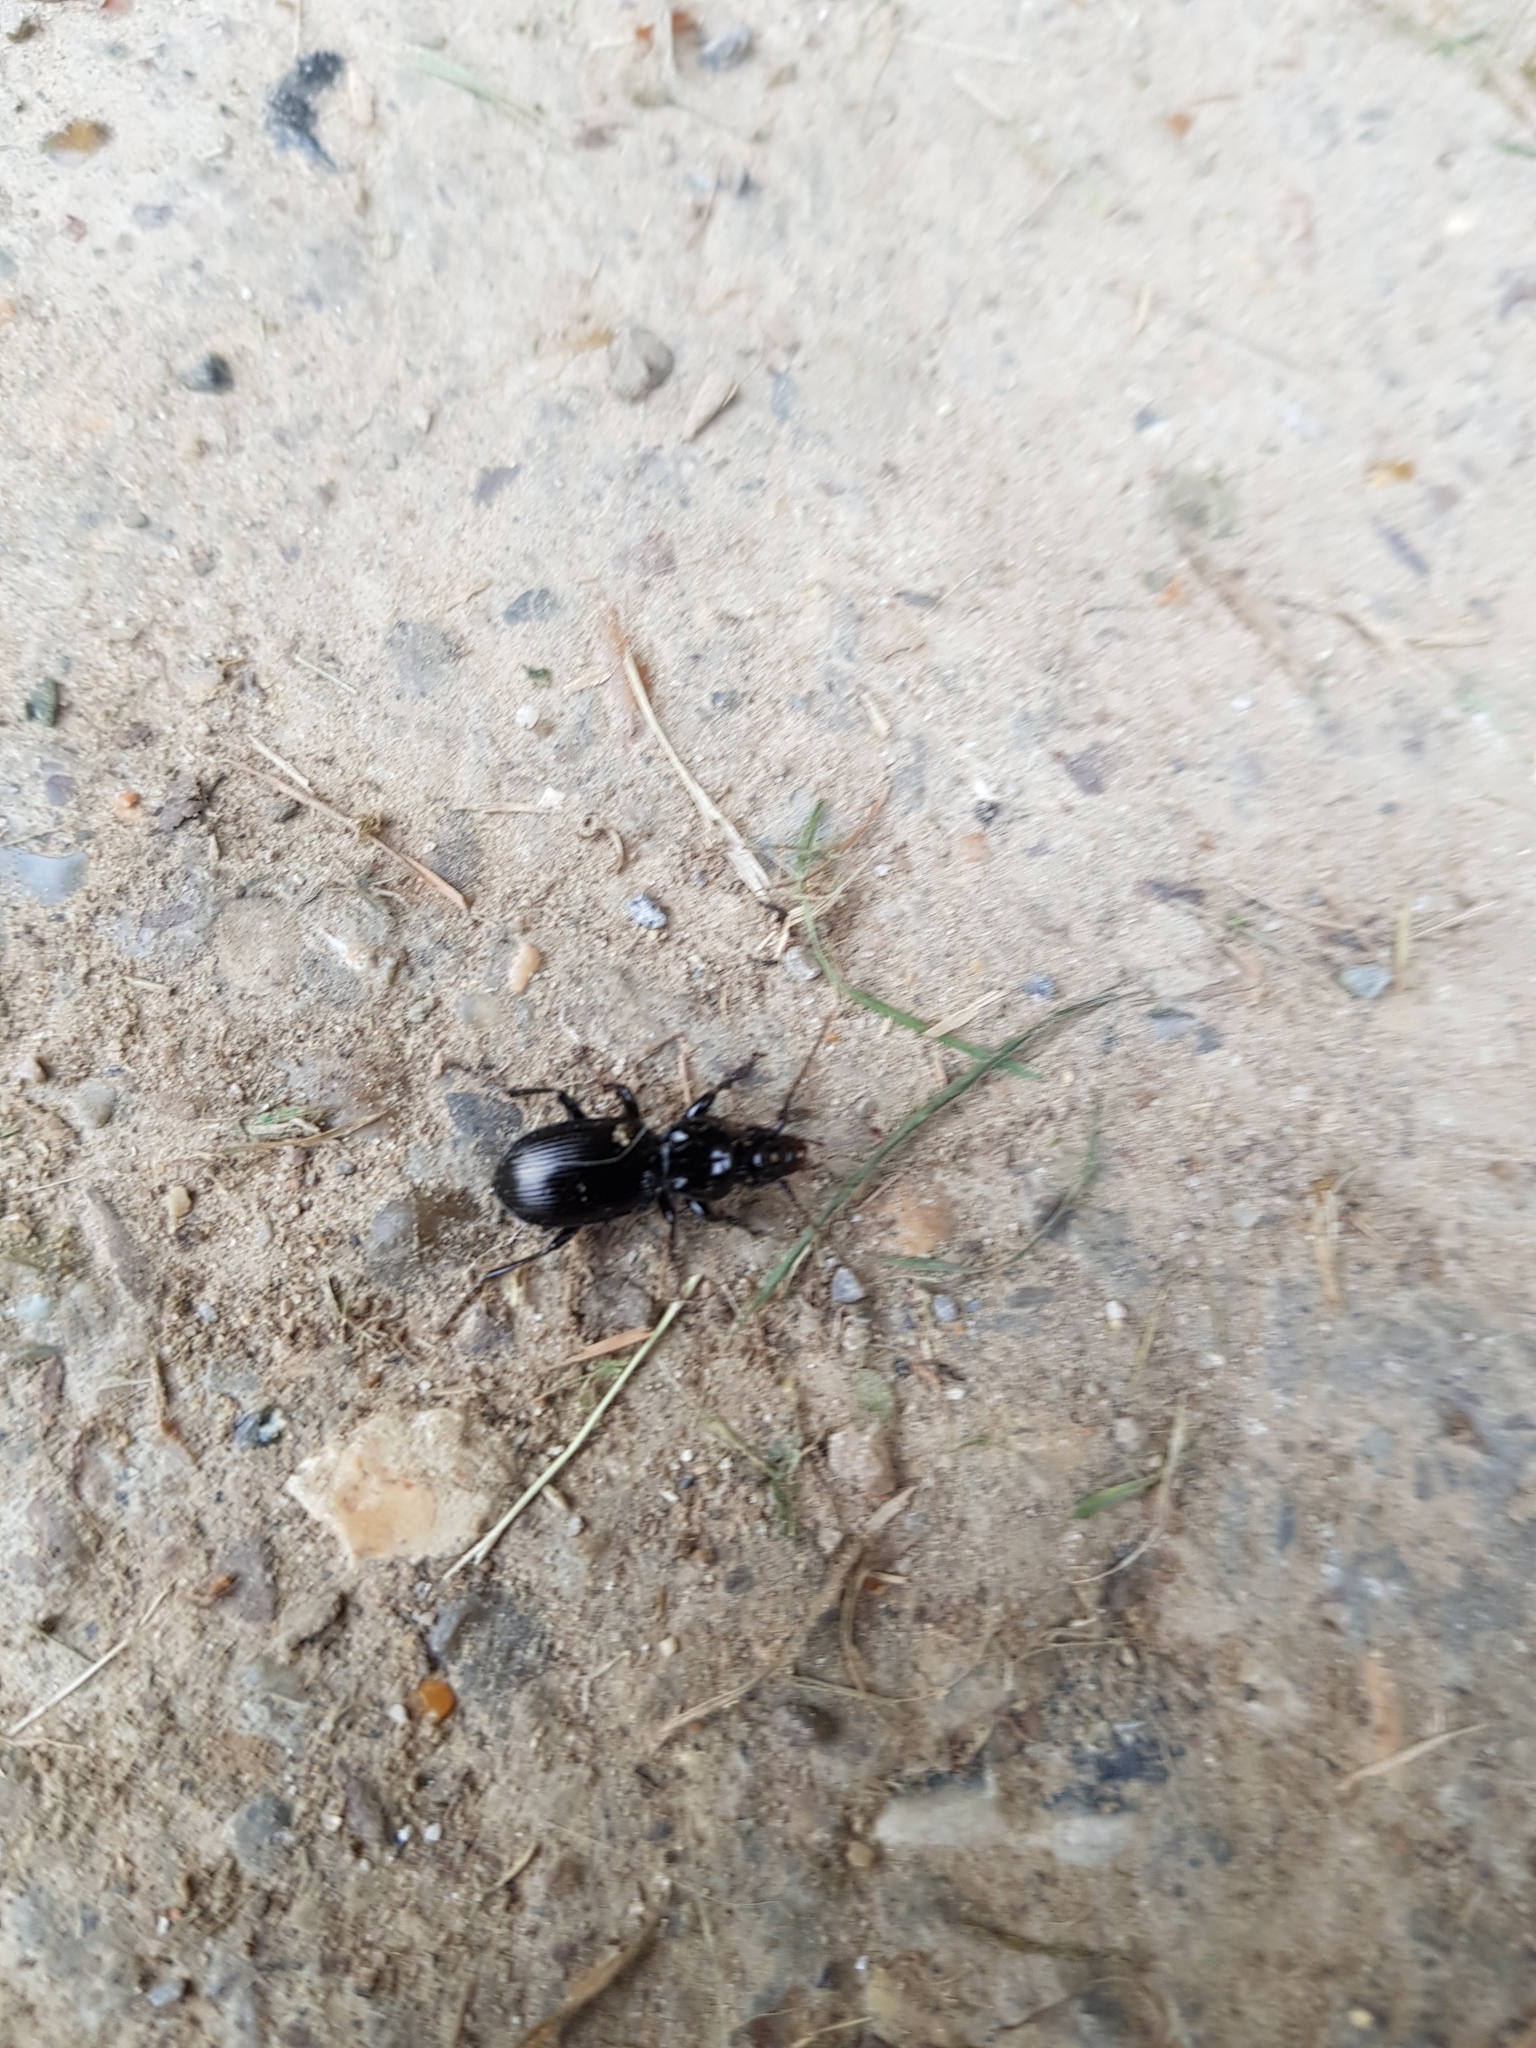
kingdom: Animalia
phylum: Arthropoda
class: Insecta
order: Coleoptera
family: Carabidae
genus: Pterostichus
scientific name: Pterostichus madidus
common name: Black clock
